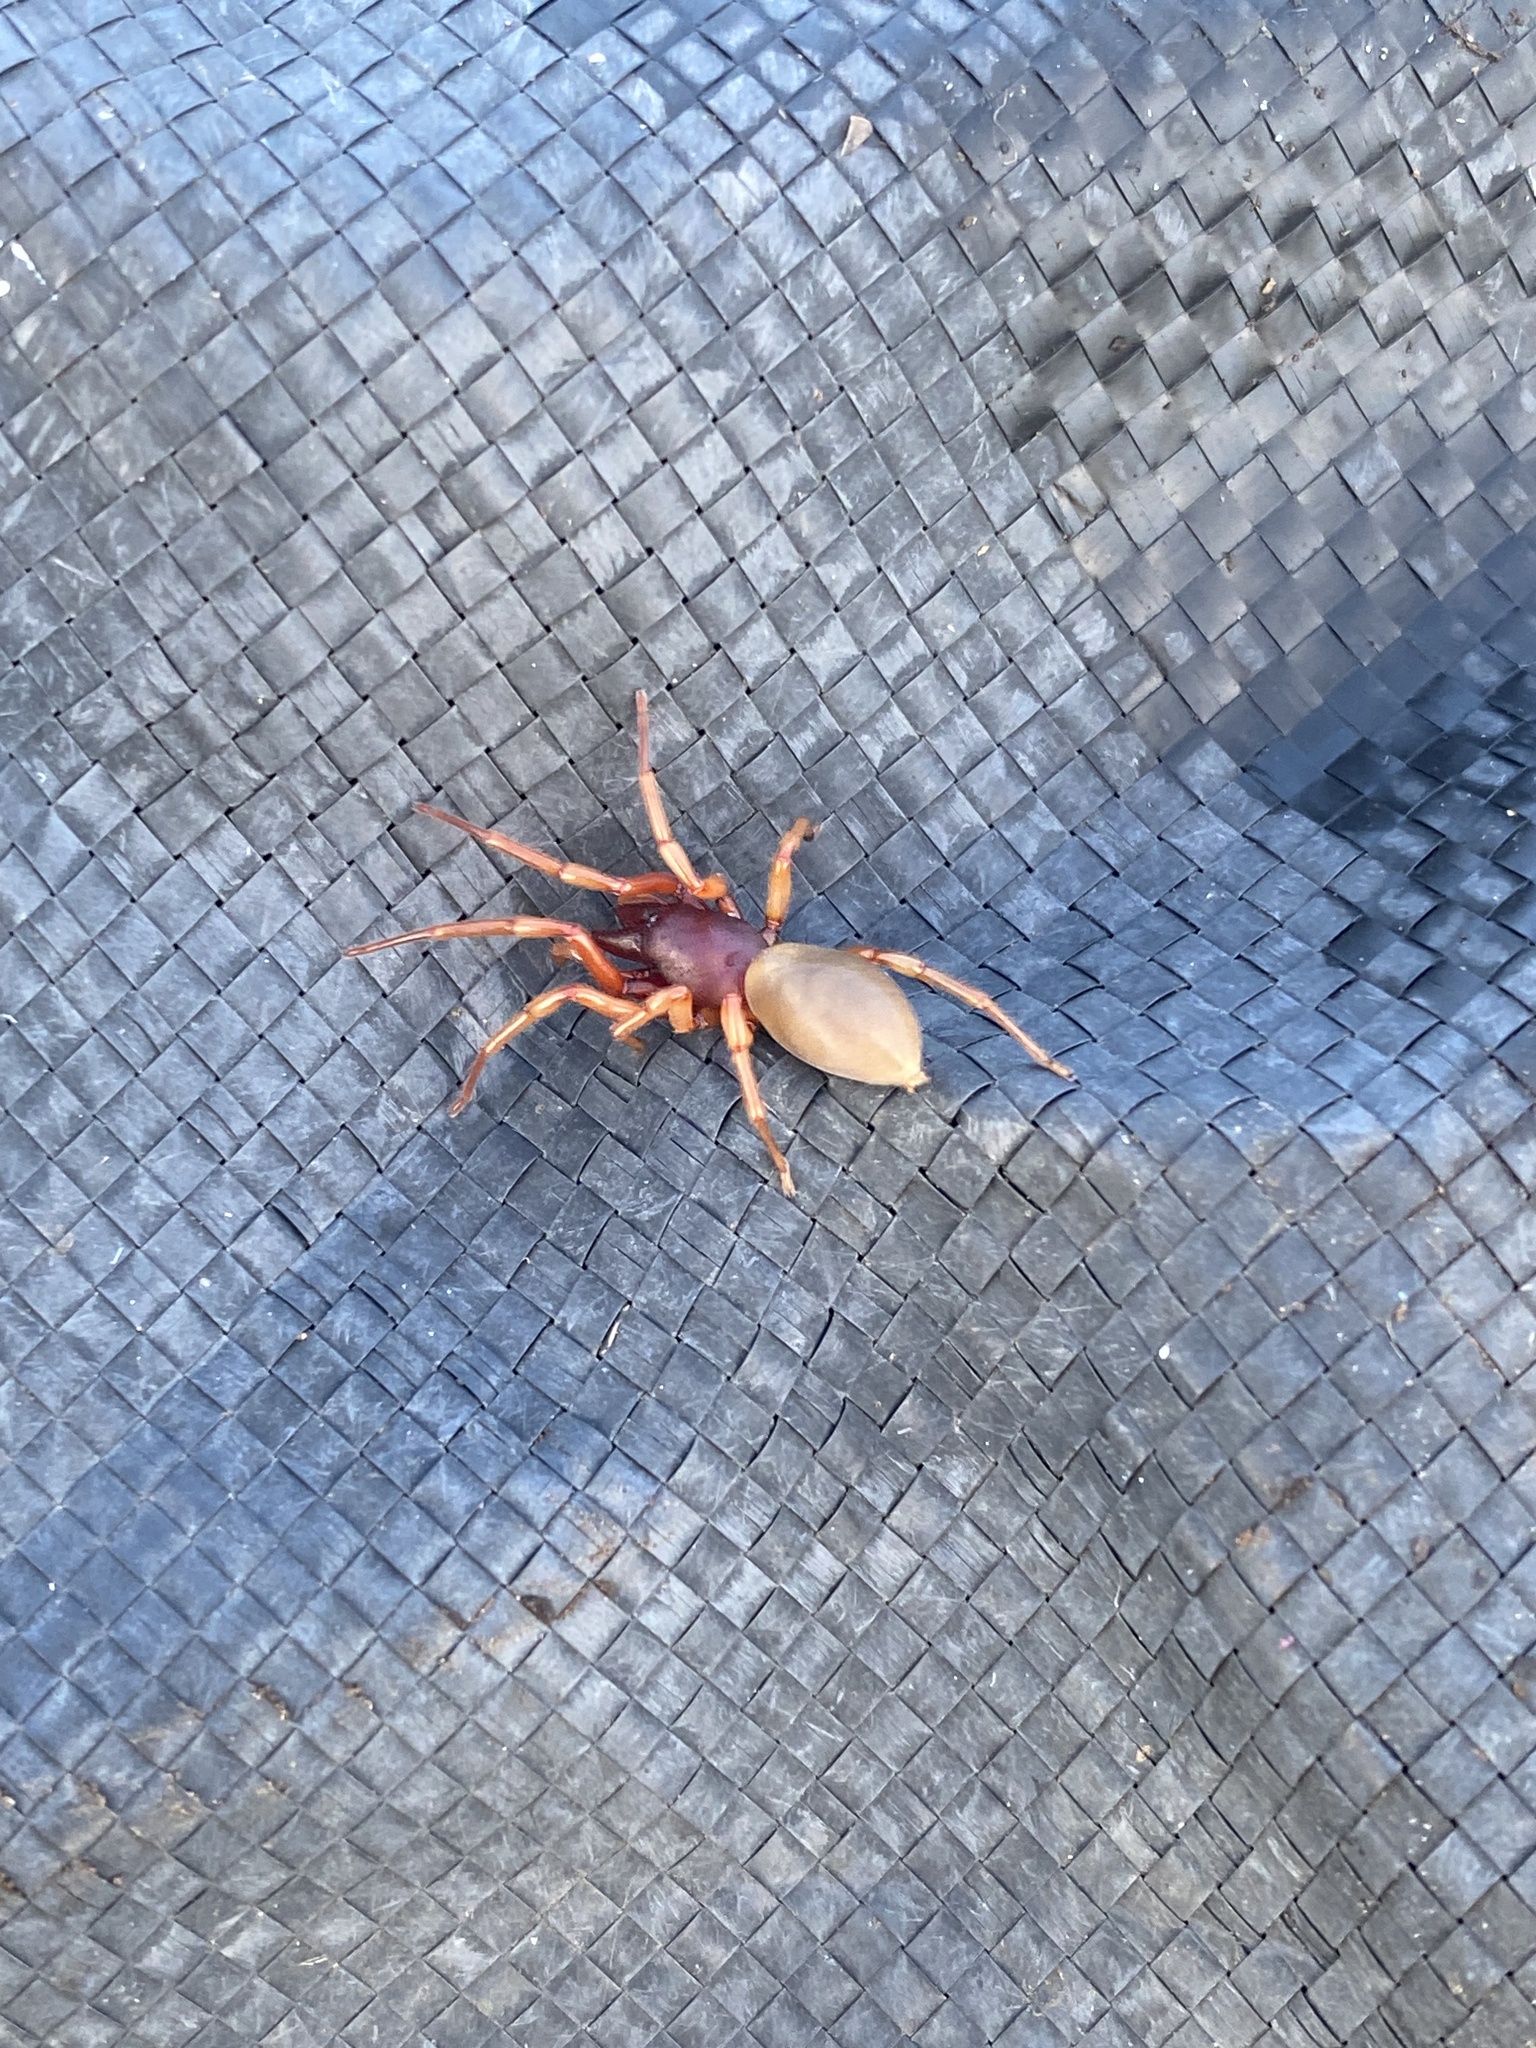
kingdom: Animalia
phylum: Arthropoda
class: Arachnida
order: Araneae
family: Dysderidae
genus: Dysdera
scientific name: Dysdera crocata
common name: Woodlouse spider
